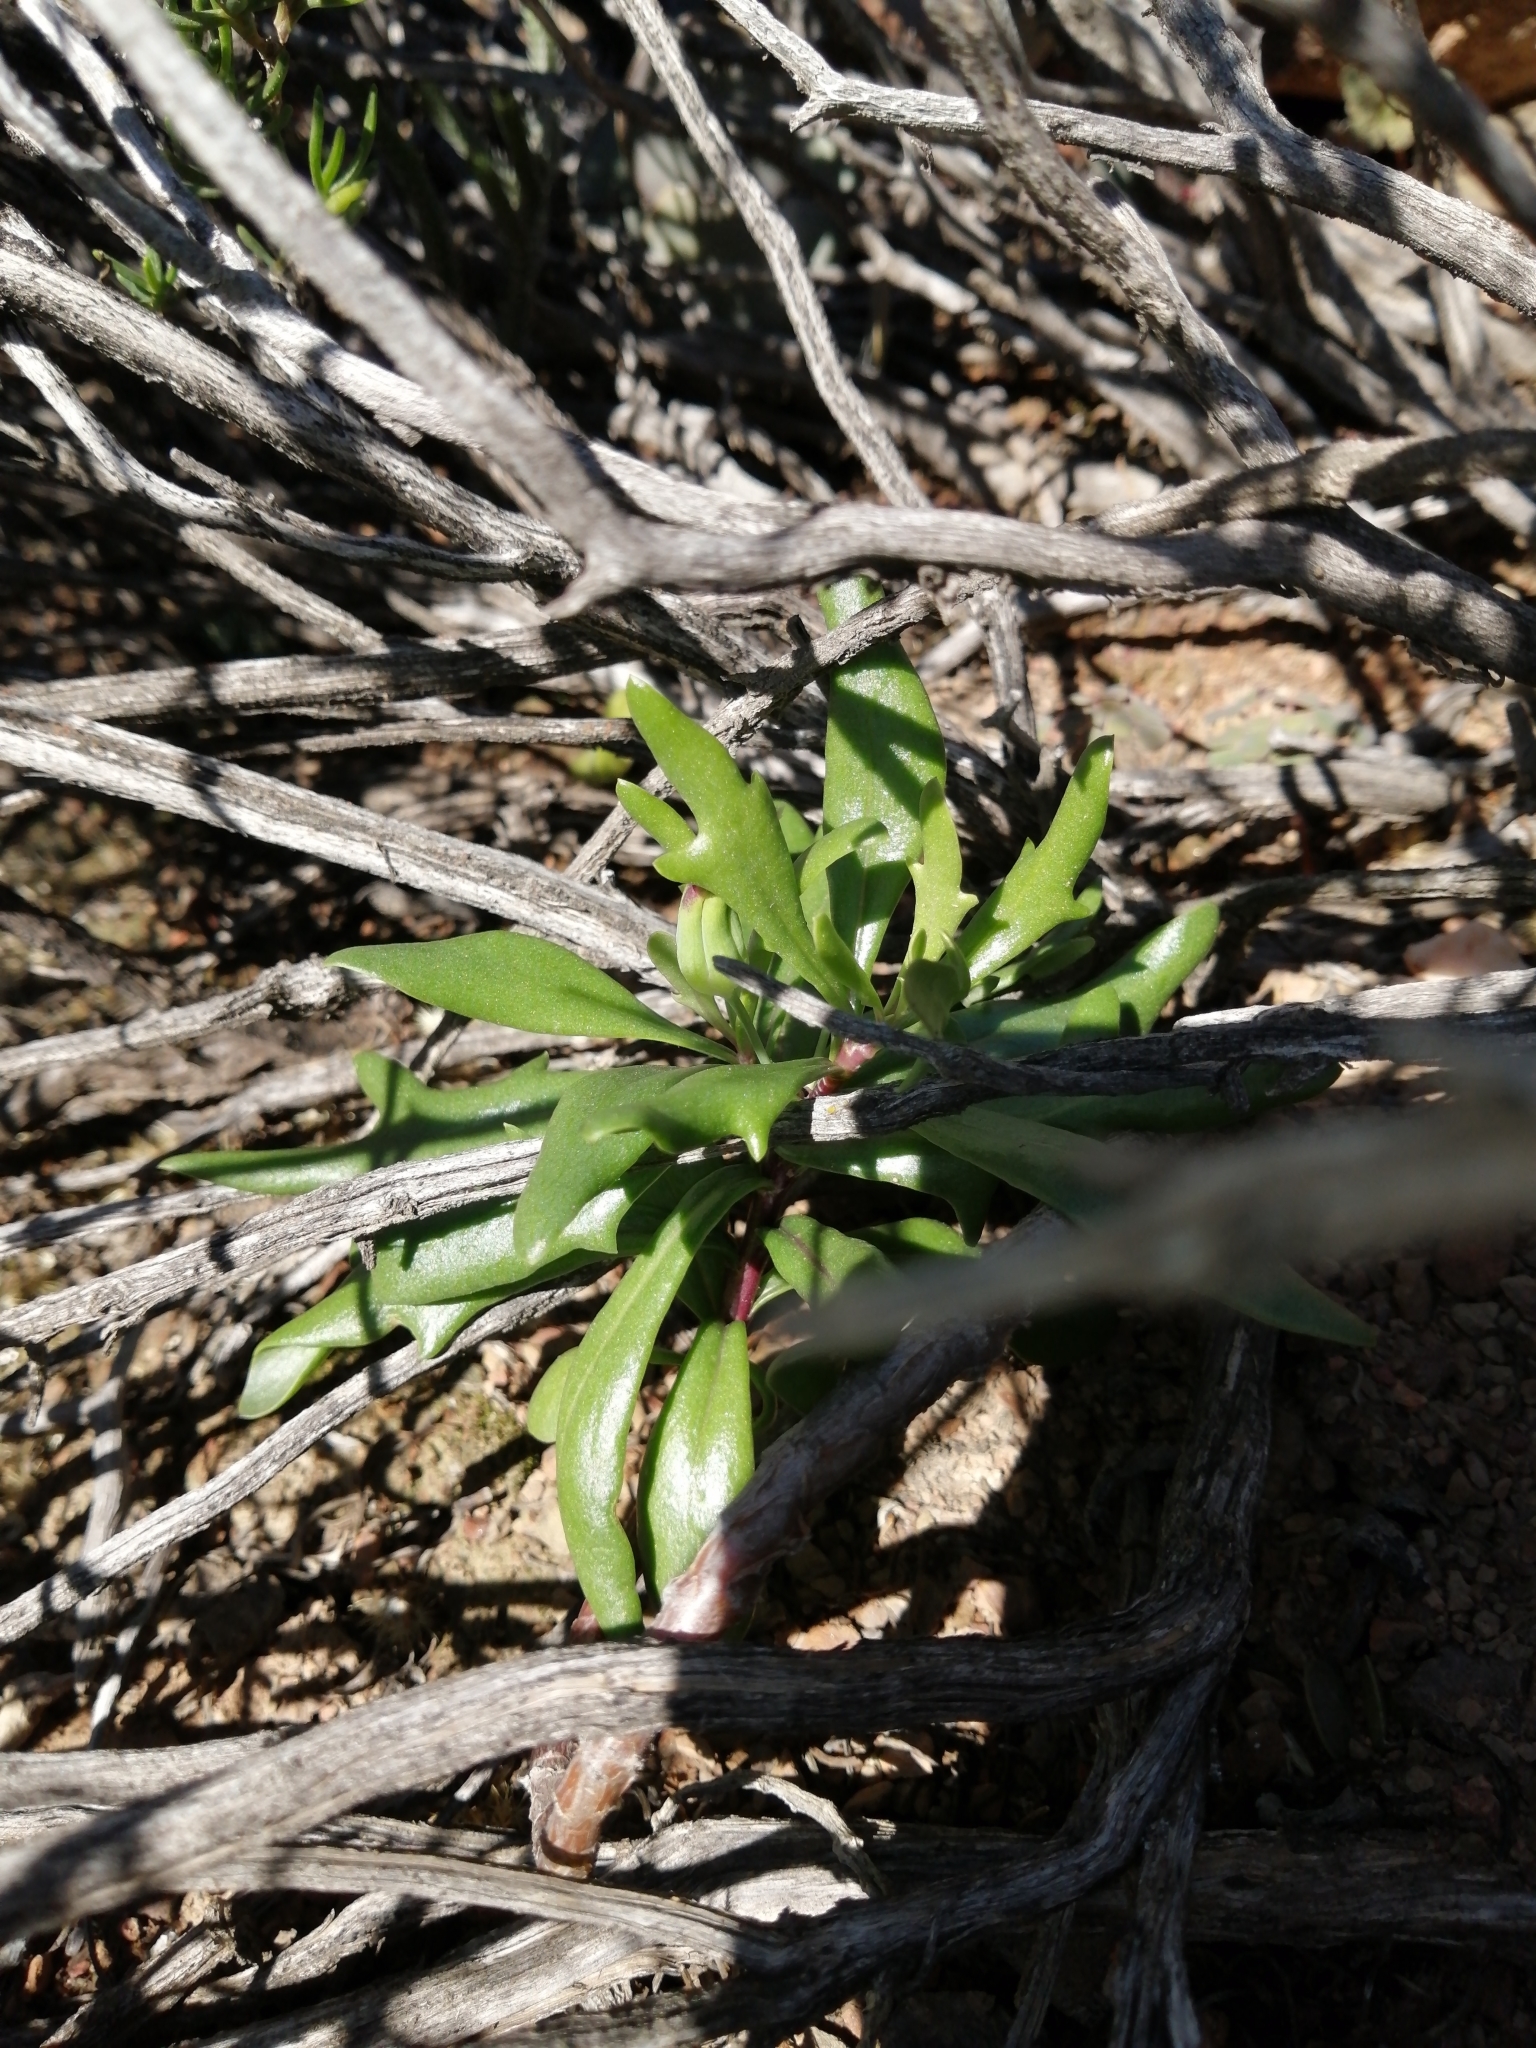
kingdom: Plantae
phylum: Tracheophyta
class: Magnoliopsida
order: Asterales
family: Asteraceae
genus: Othonna
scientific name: Othonna retrofracta
